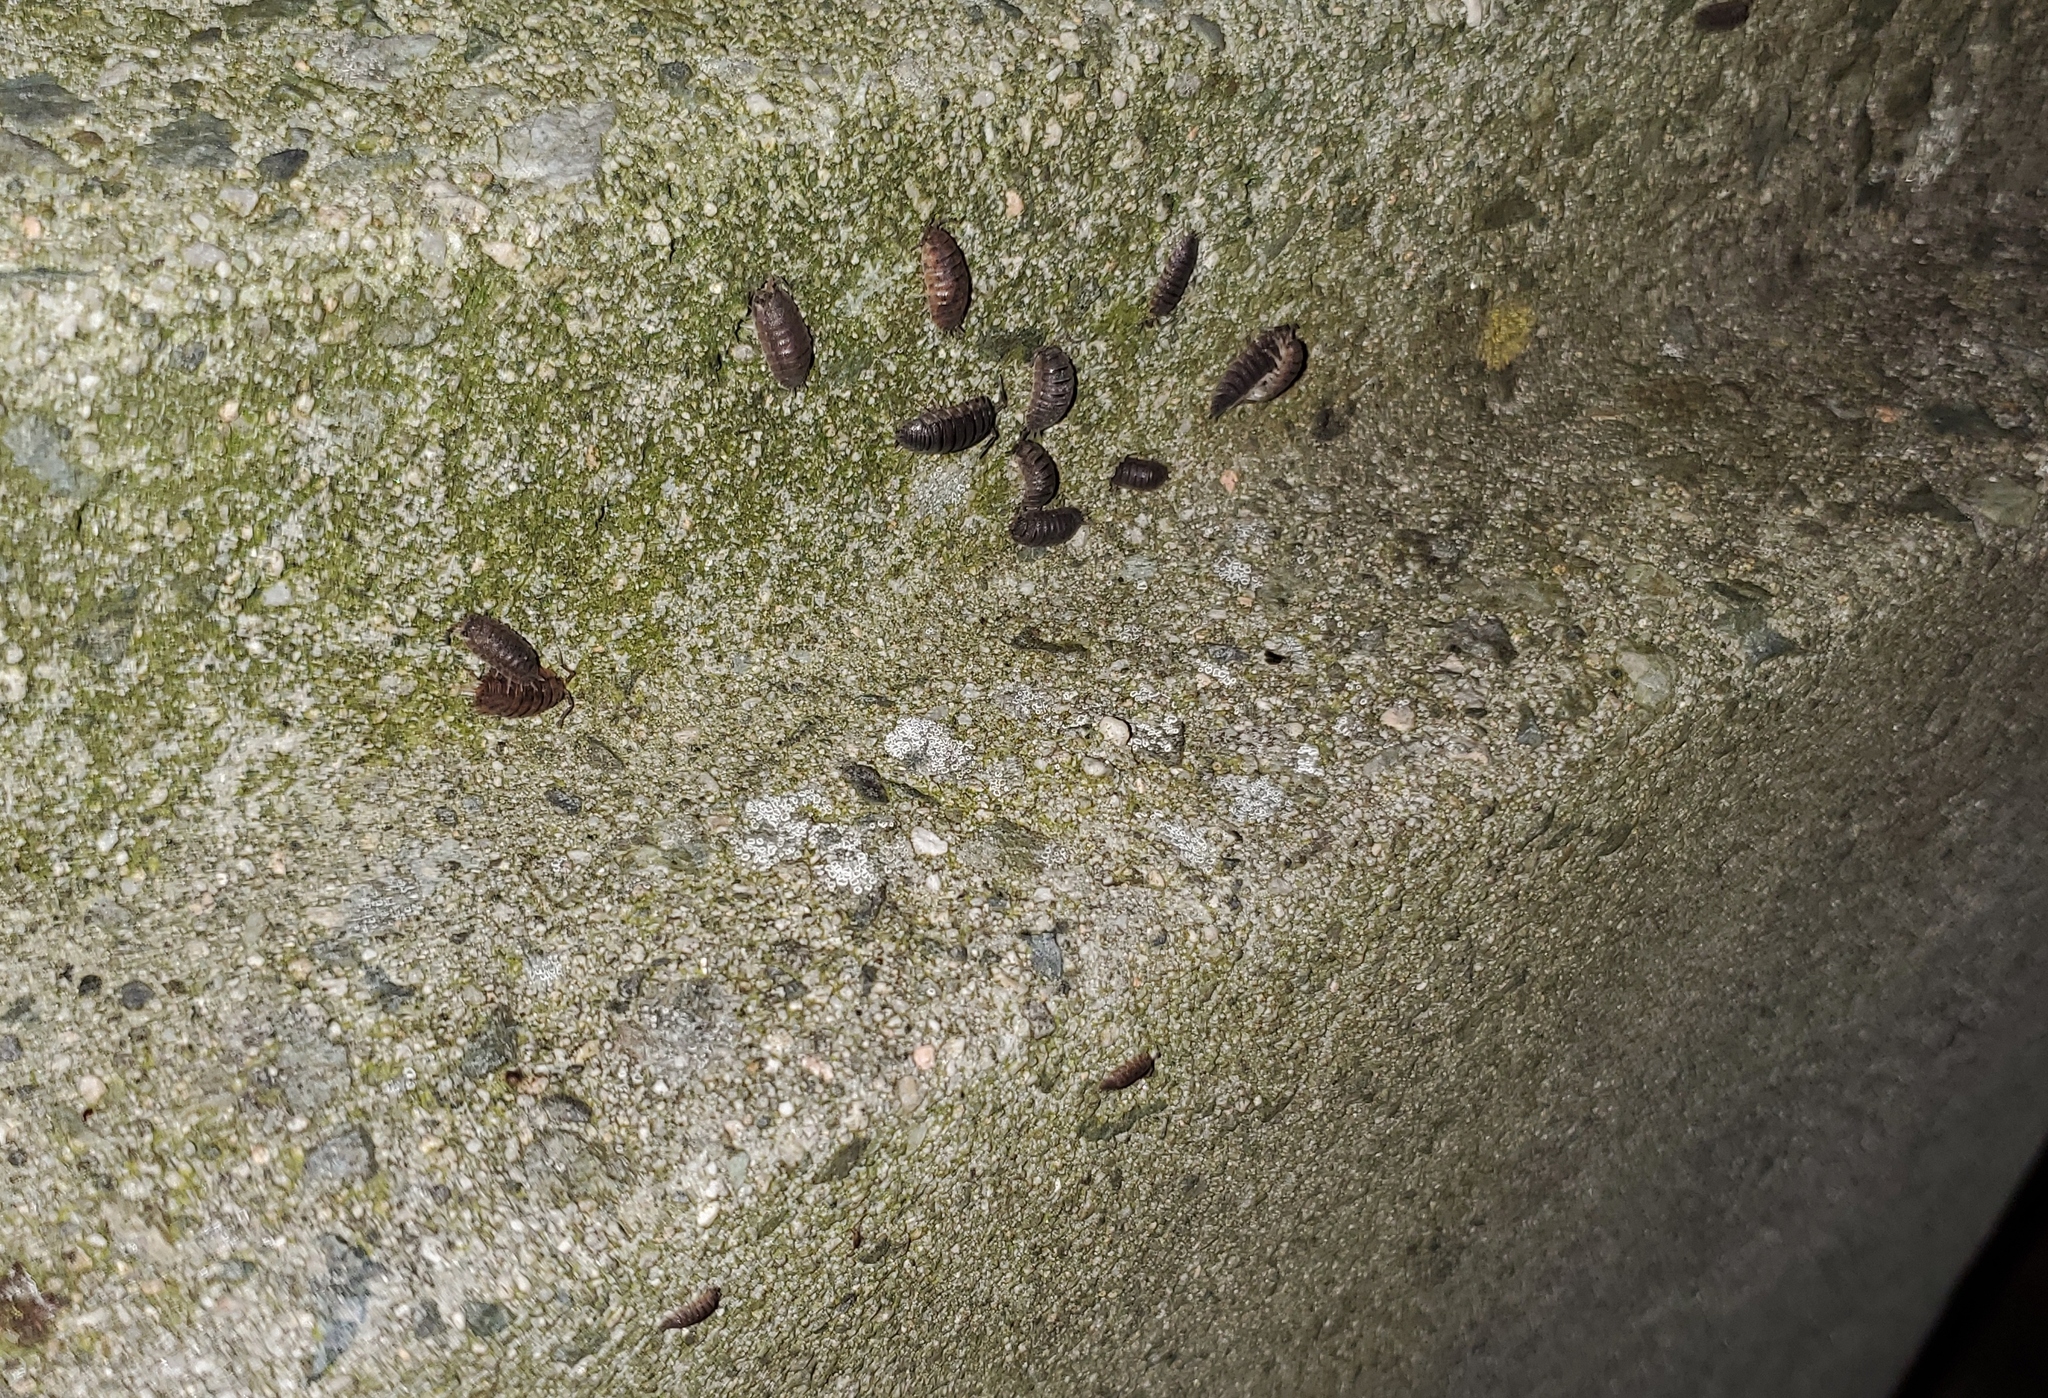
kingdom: Animalia
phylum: Arthropoda
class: Malacostraca
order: Isopoda
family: Porcellionidae
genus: Porcellio
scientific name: Porcellio scaber
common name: Common rough woodlouse
